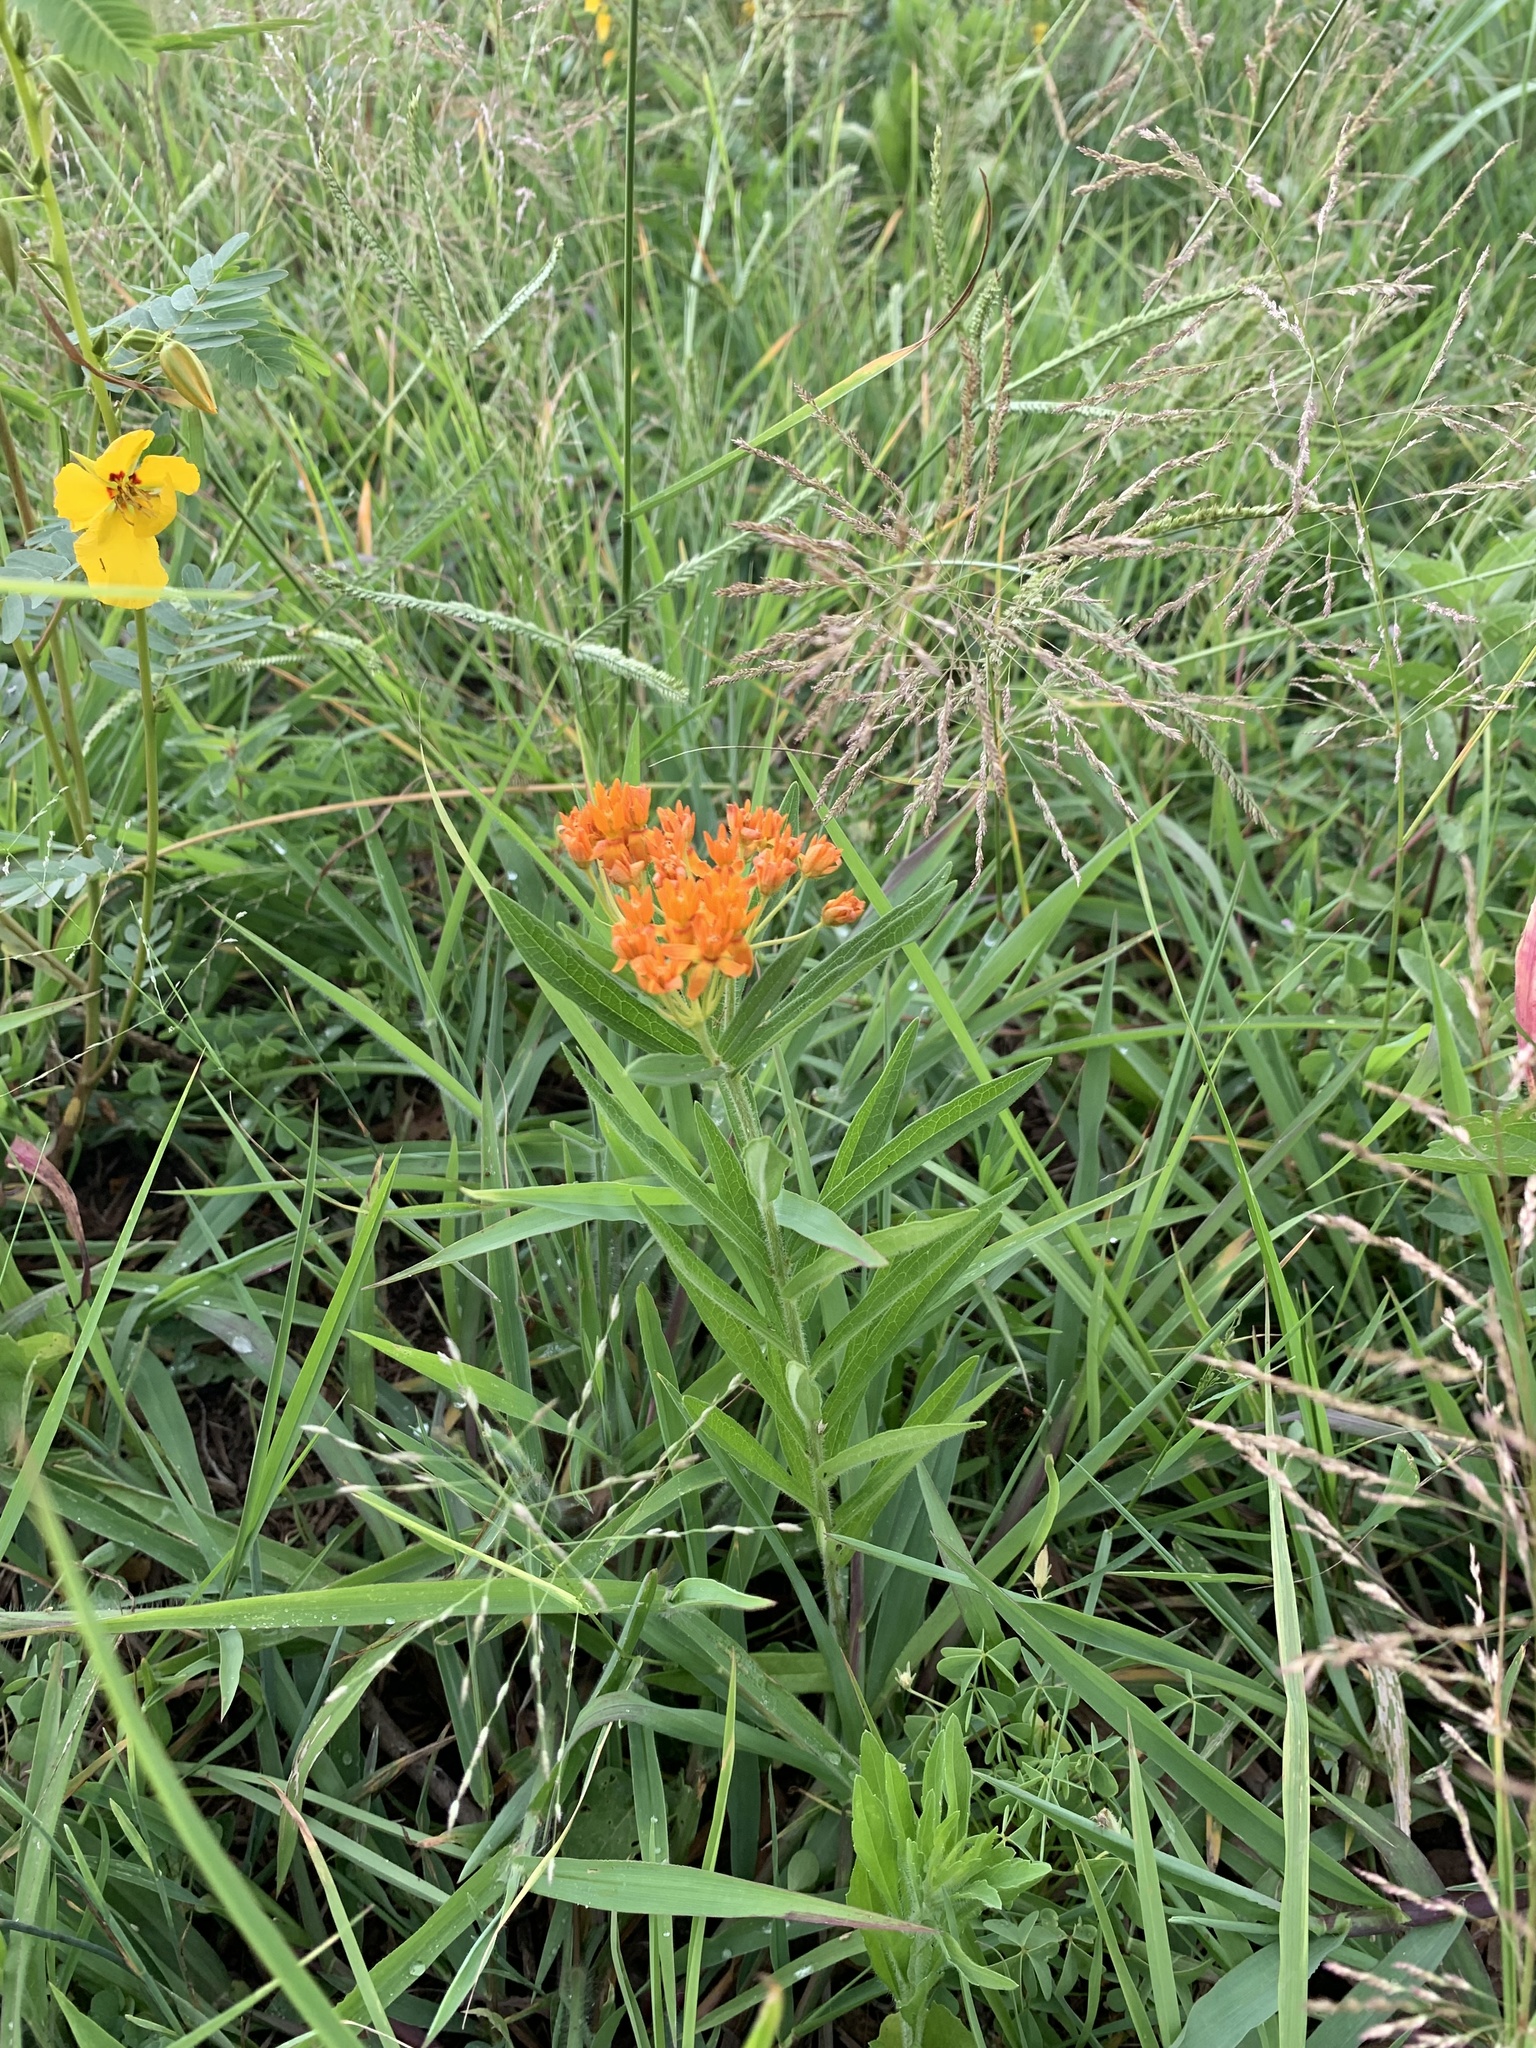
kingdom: Plantae
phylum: Tracheophyta
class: Magnoliopsida
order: Gentianales
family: Apocynaceae
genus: Asclepias
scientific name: Asclepias tuberosa
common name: Butterfly milkweed
